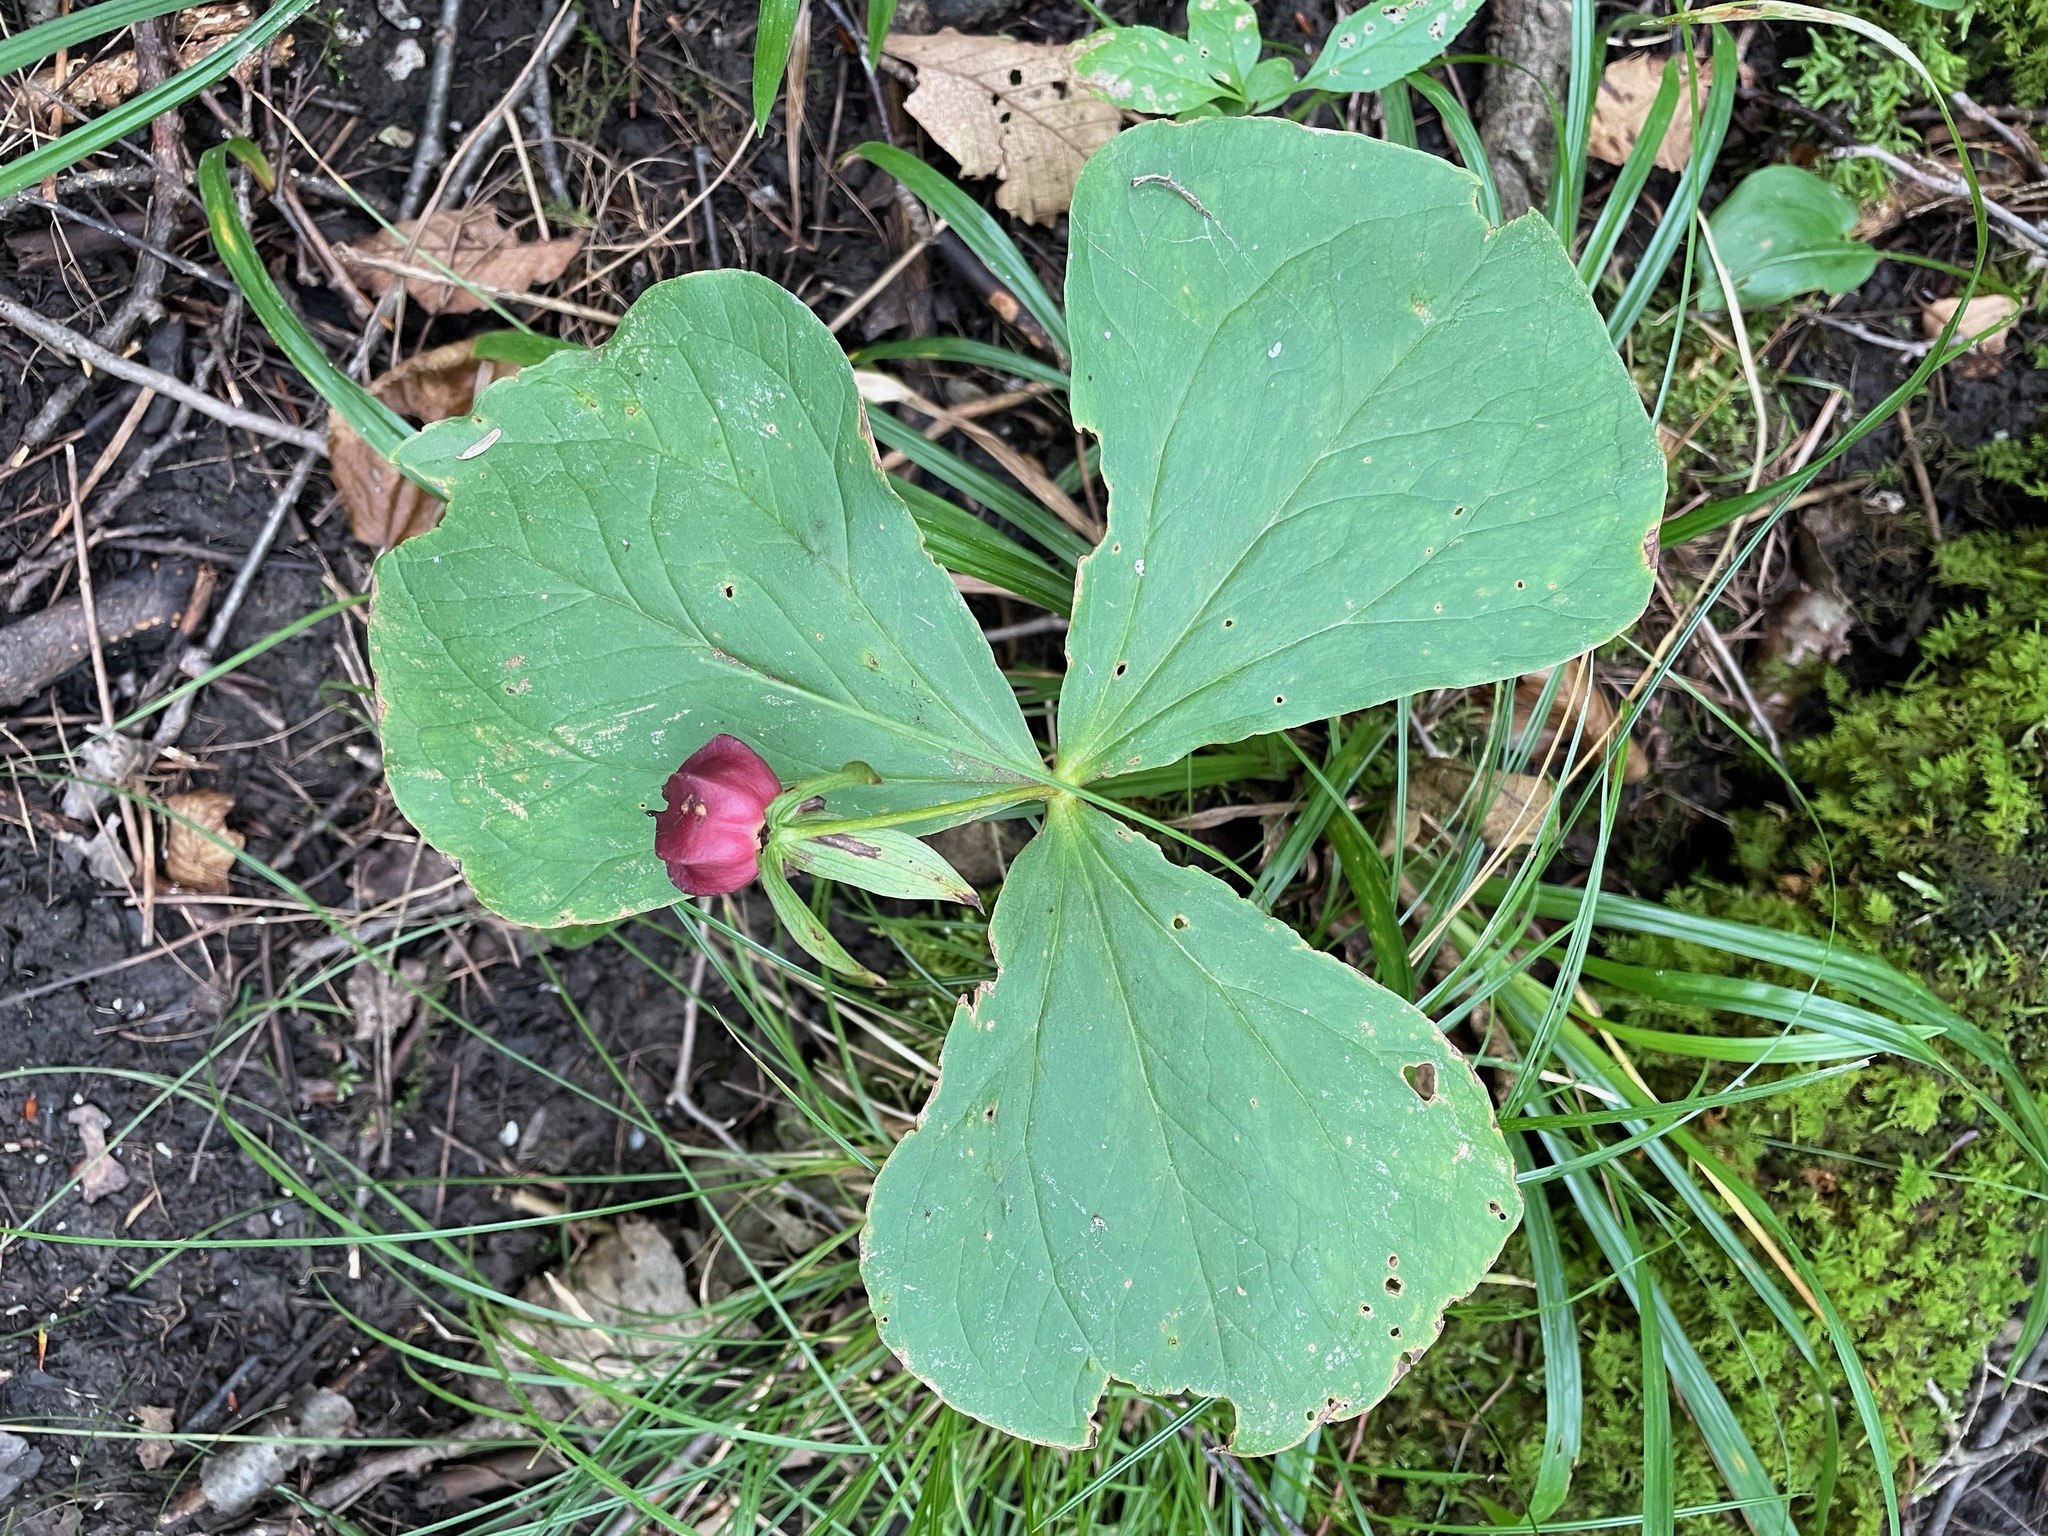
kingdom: Plantae
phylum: Tracheophyta
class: Liliopsida
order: Liliales
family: Melanthiaceae
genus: Trillium
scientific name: Trillium erectum
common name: Purple trillium
